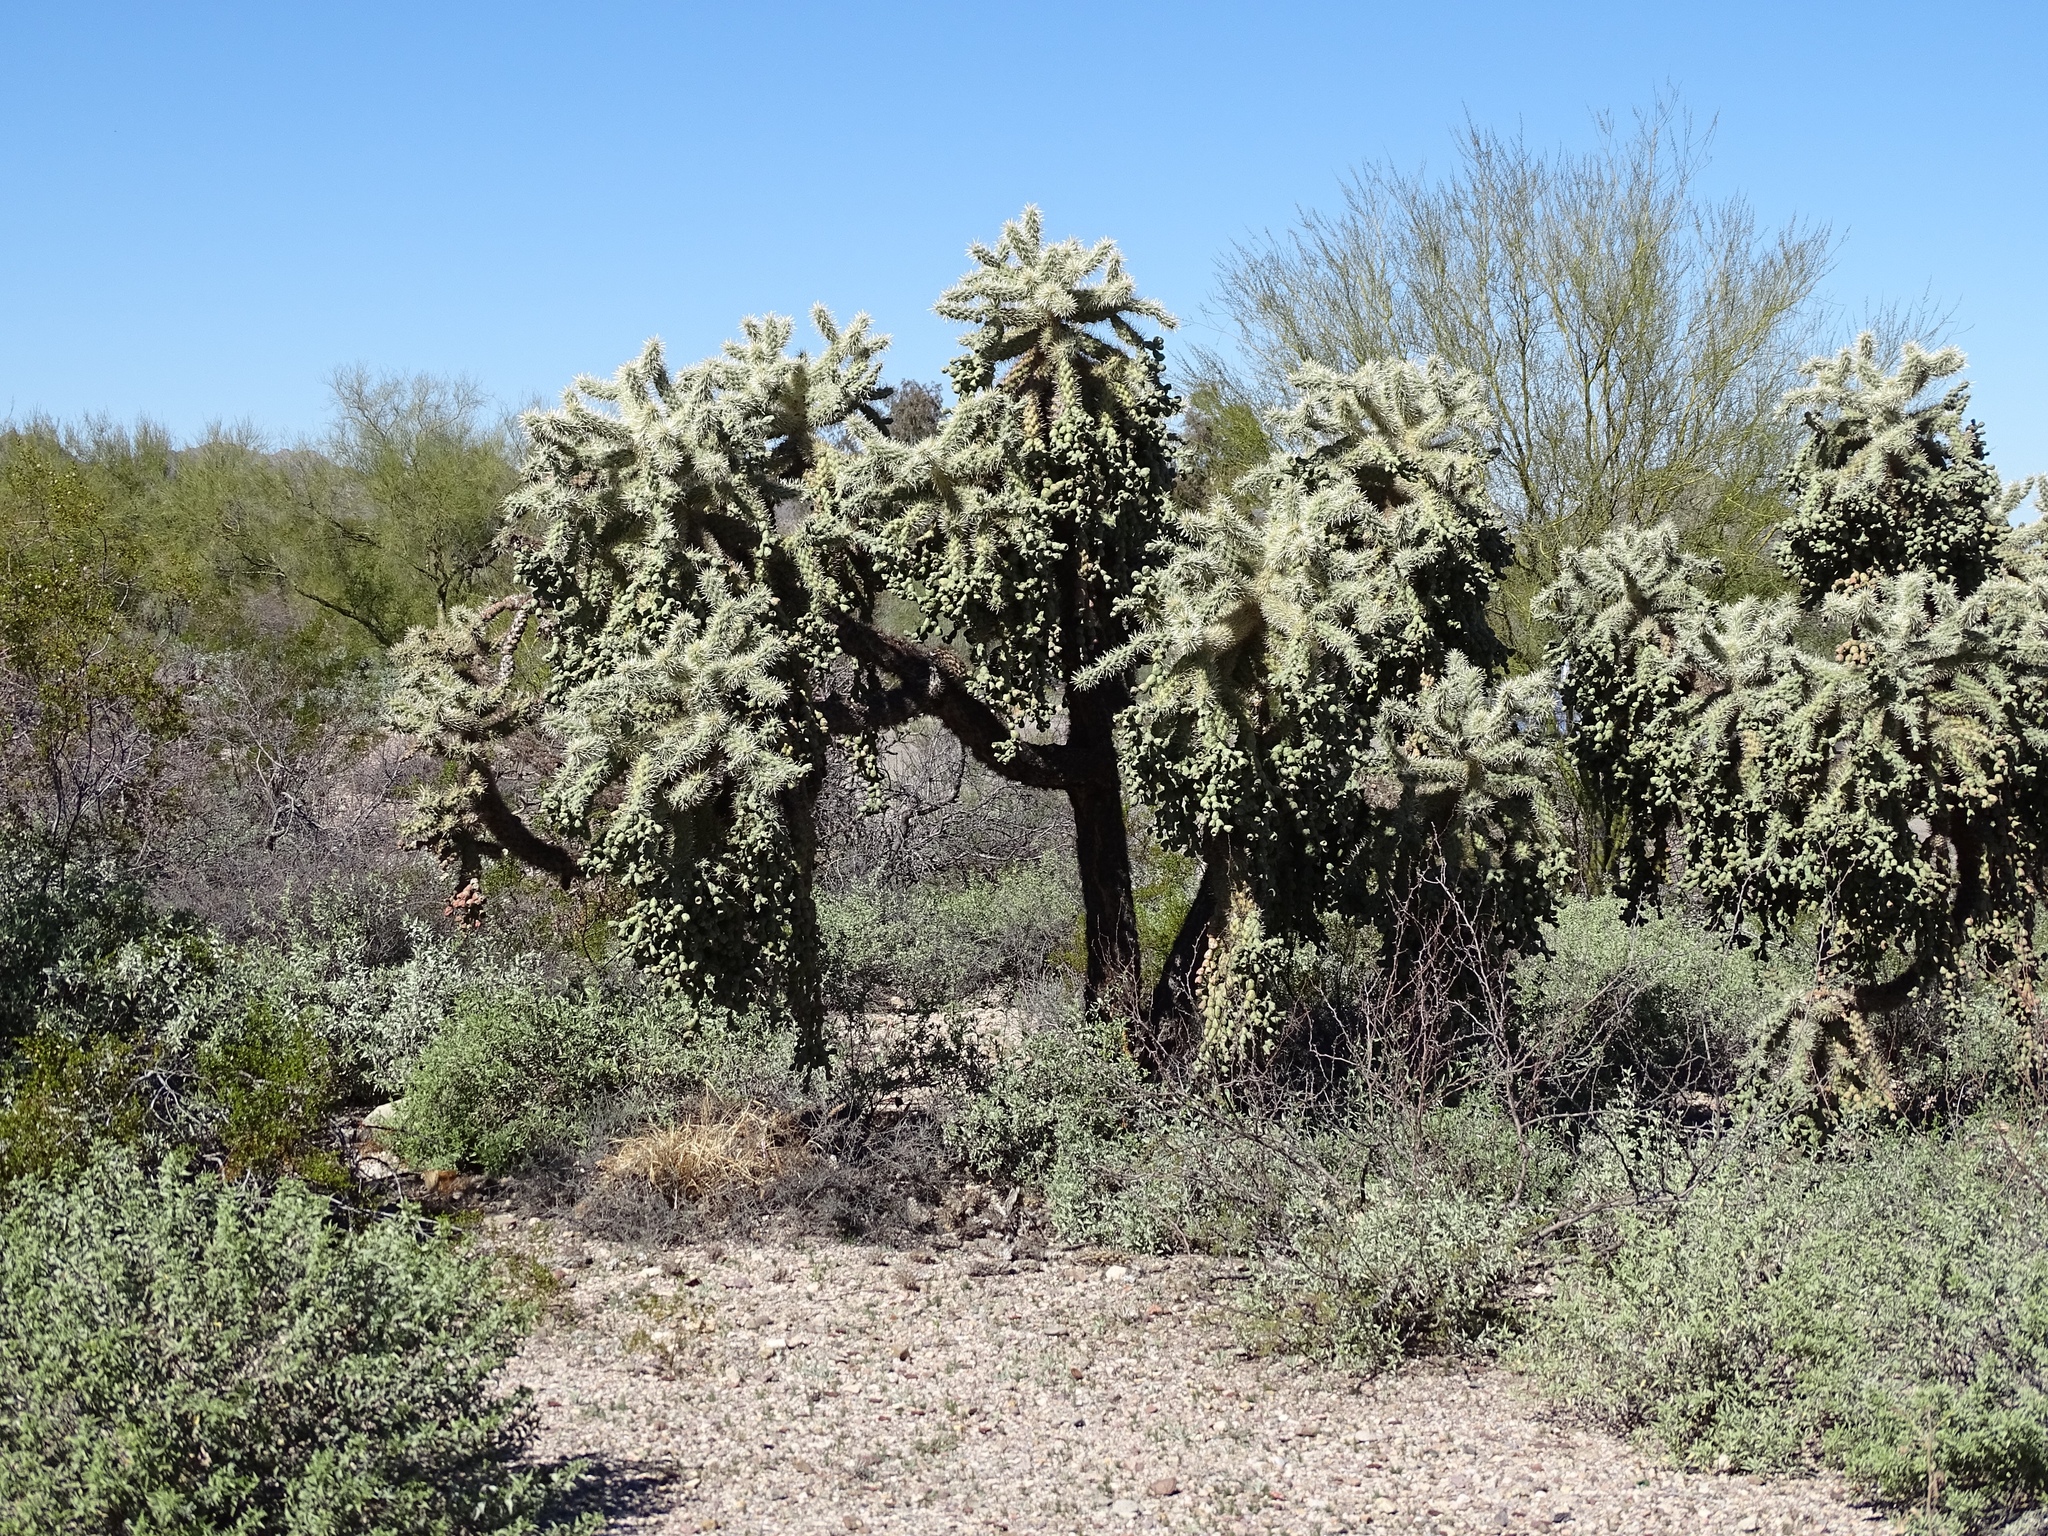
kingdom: Plantae
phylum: Tracheophyta
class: Magnoliopsida
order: Caryophyllales
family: Cactaceae
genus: Cylindropuntia
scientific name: Cylindropuntia fulgida
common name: Jumping cholla
